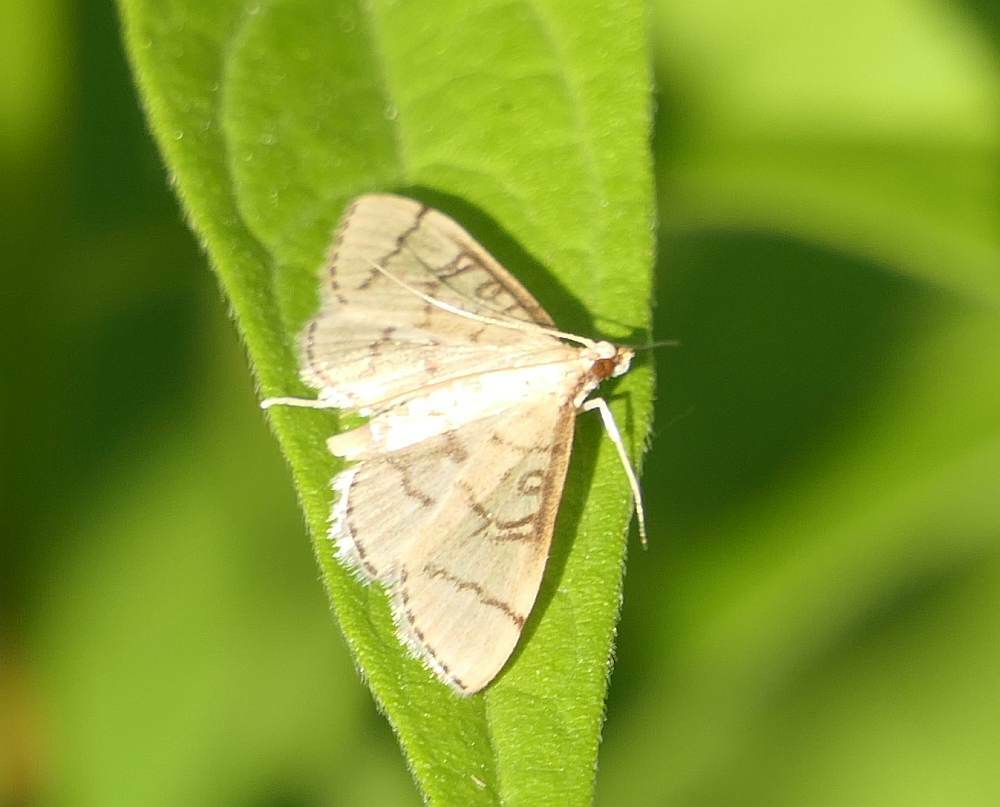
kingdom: Animalia
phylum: Arthropoda
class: Insecta
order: Lepidoptera
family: Crambidae
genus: Lamprosema
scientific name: Lamprosema Blepharomastix ranalis
